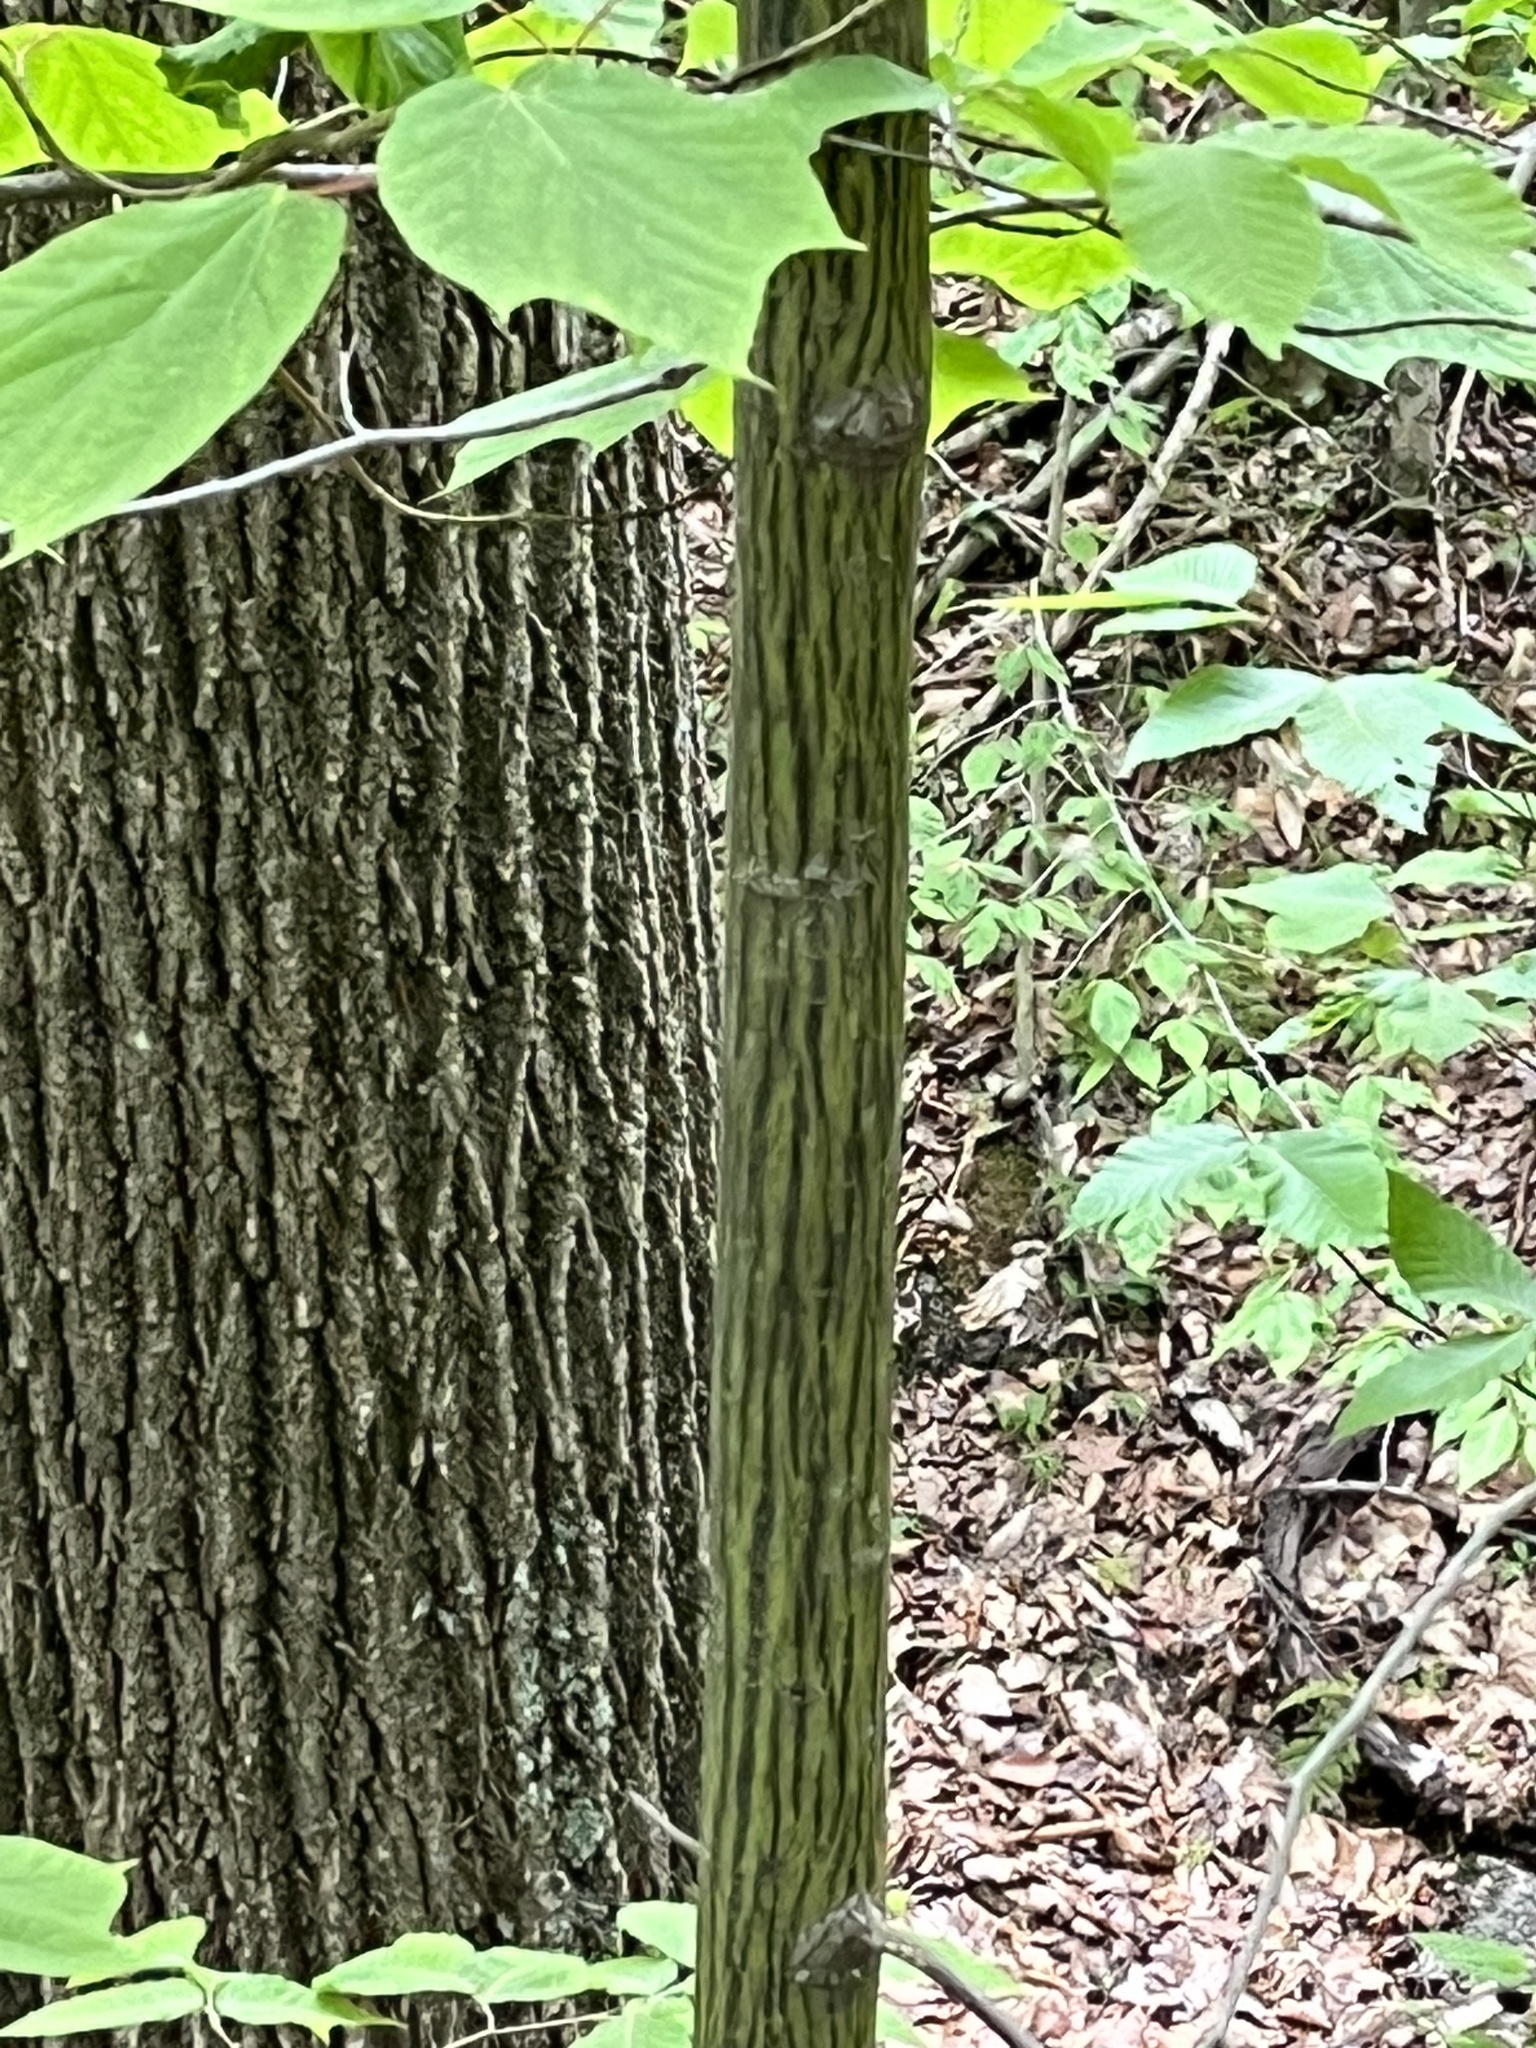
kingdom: Plantae
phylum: Tracheophyta
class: Magnoliopsida
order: Sapindales
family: Sapindaceae
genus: Acer
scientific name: Acer pensylvanicum
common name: Moosewood
